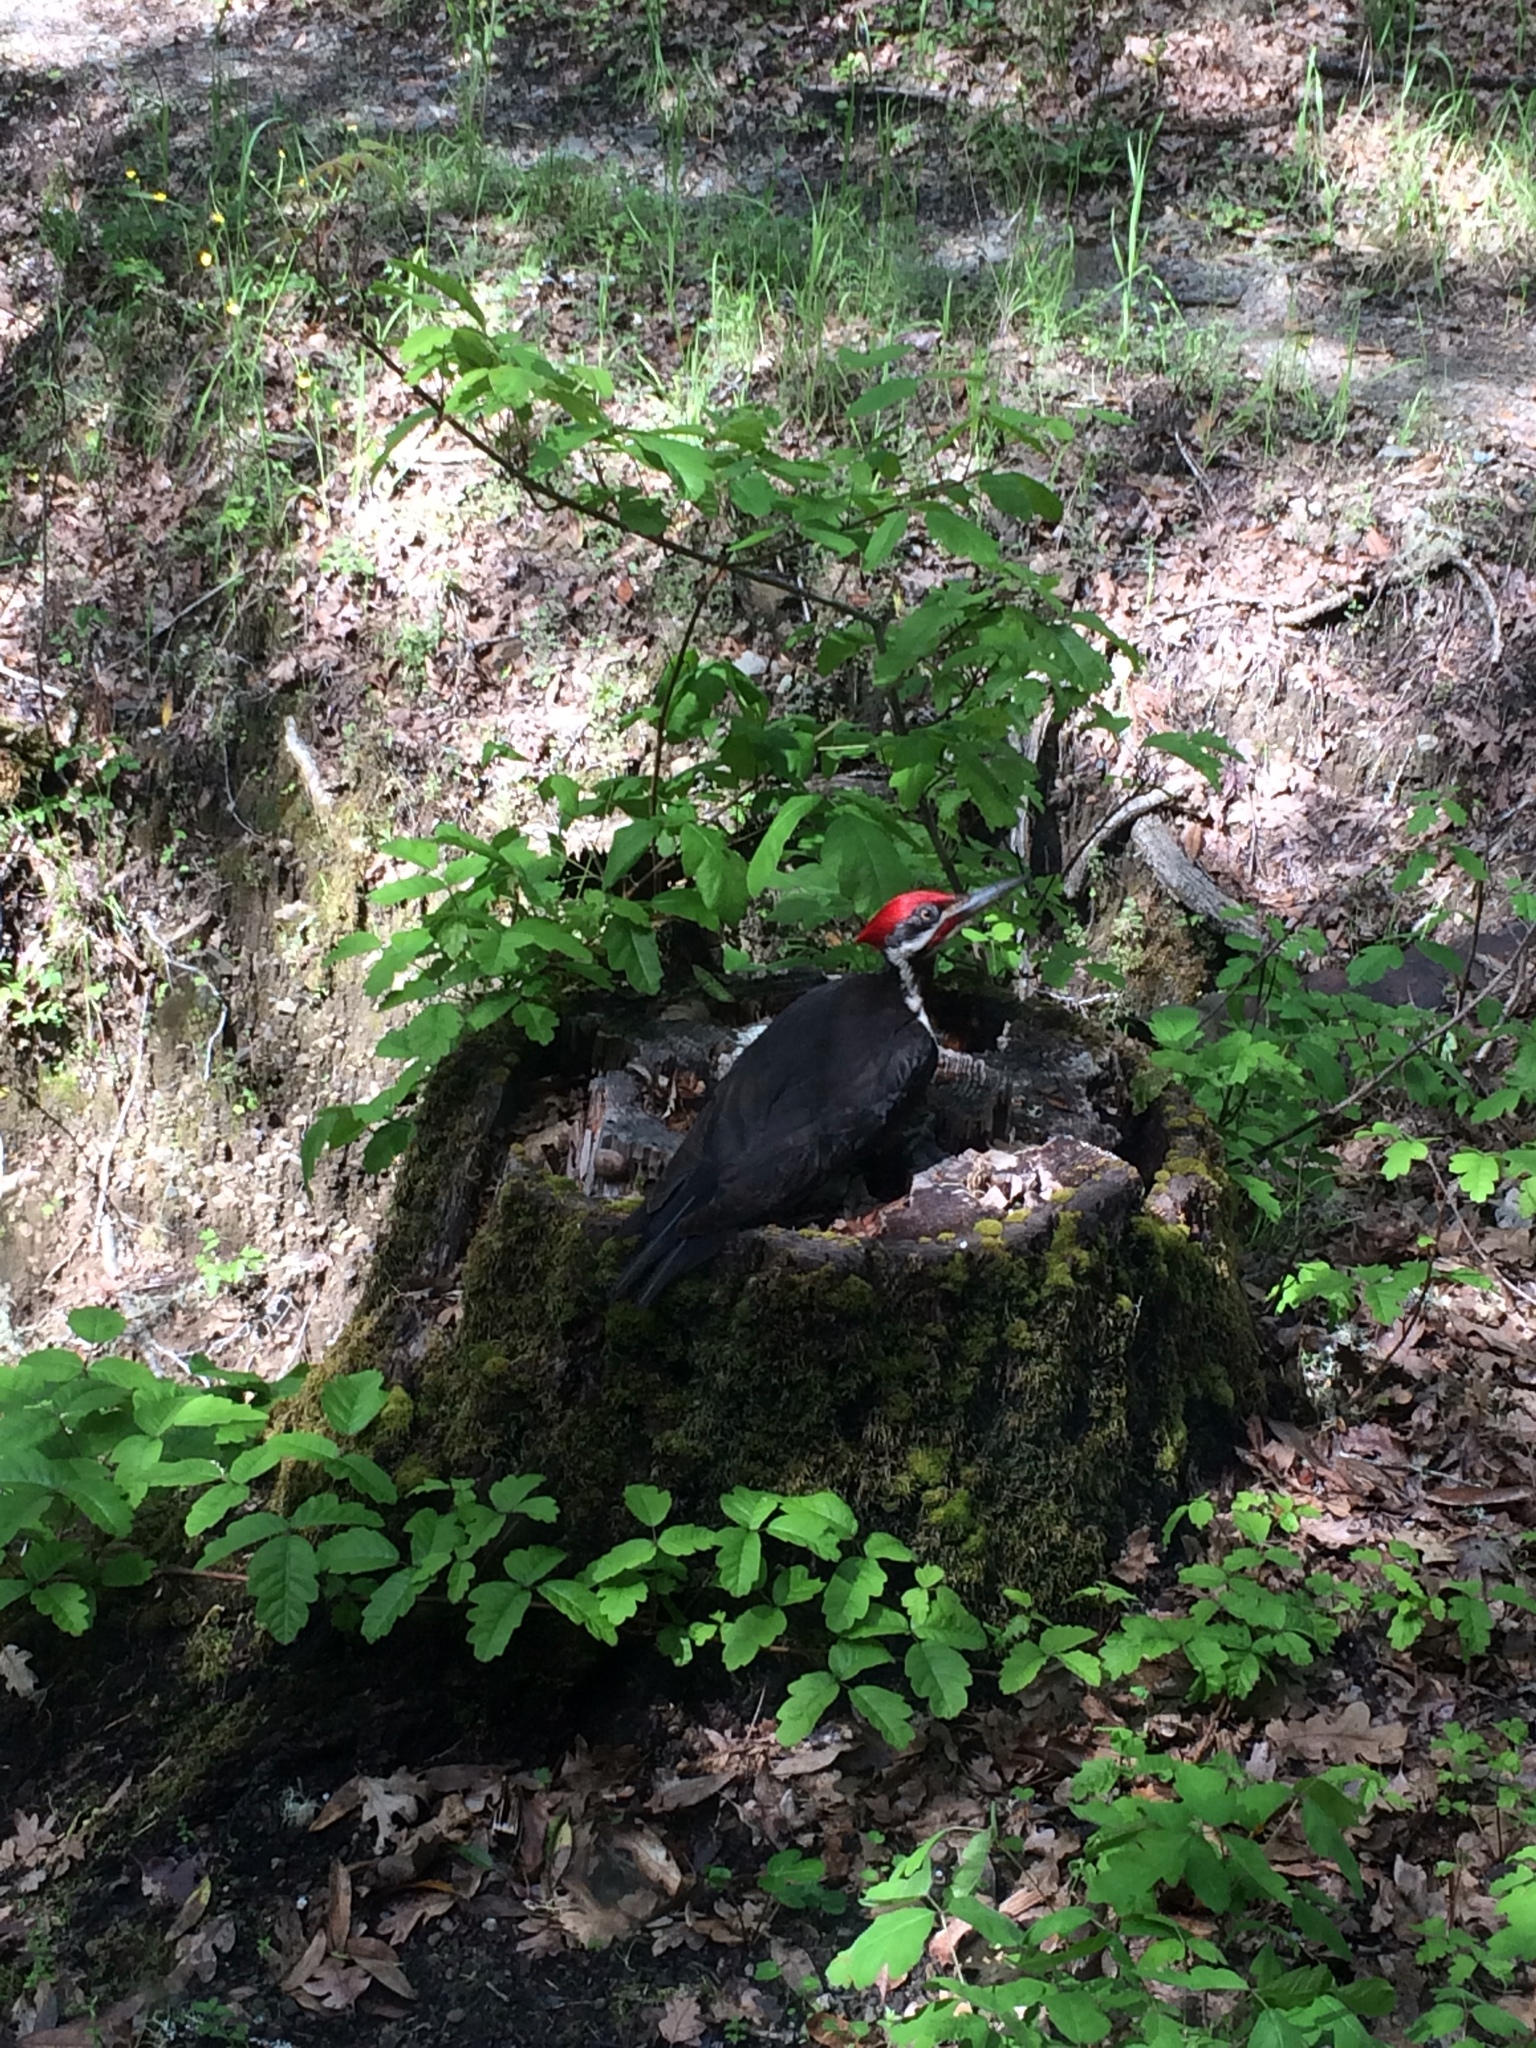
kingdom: Animalia
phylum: Chordata
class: Aves
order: Piciformes
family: Picidae
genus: Dryocopus
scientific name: Dryocopus pileatus
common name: Pileated woodpecker
